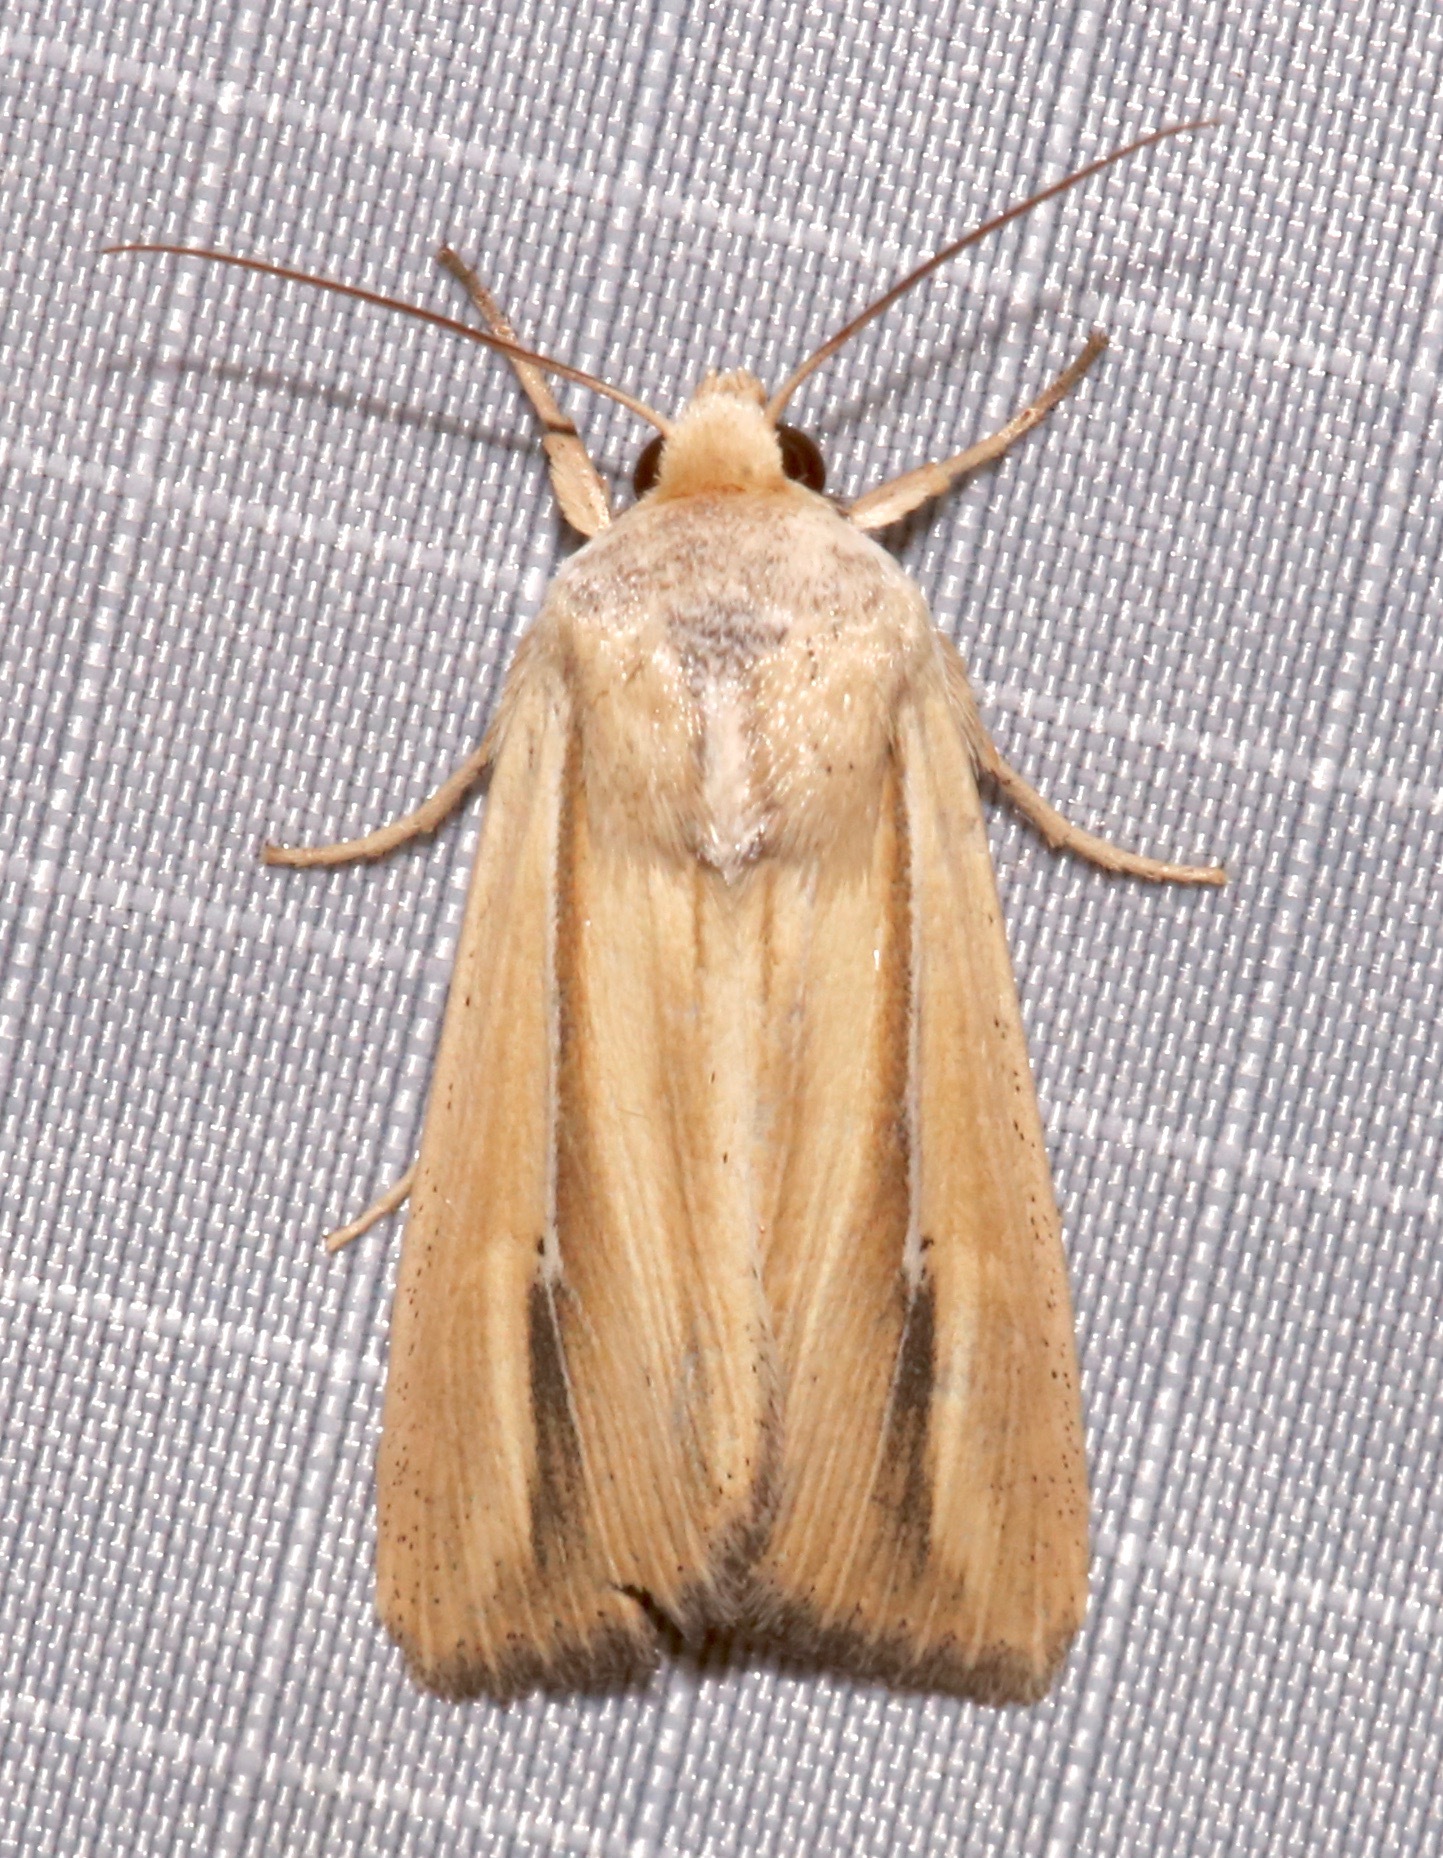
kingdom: Animalia
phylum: Arthropoda
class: Insecta
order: Lepidoptera
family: Noctuidae
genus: Leucania
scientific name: Leucania stolata
